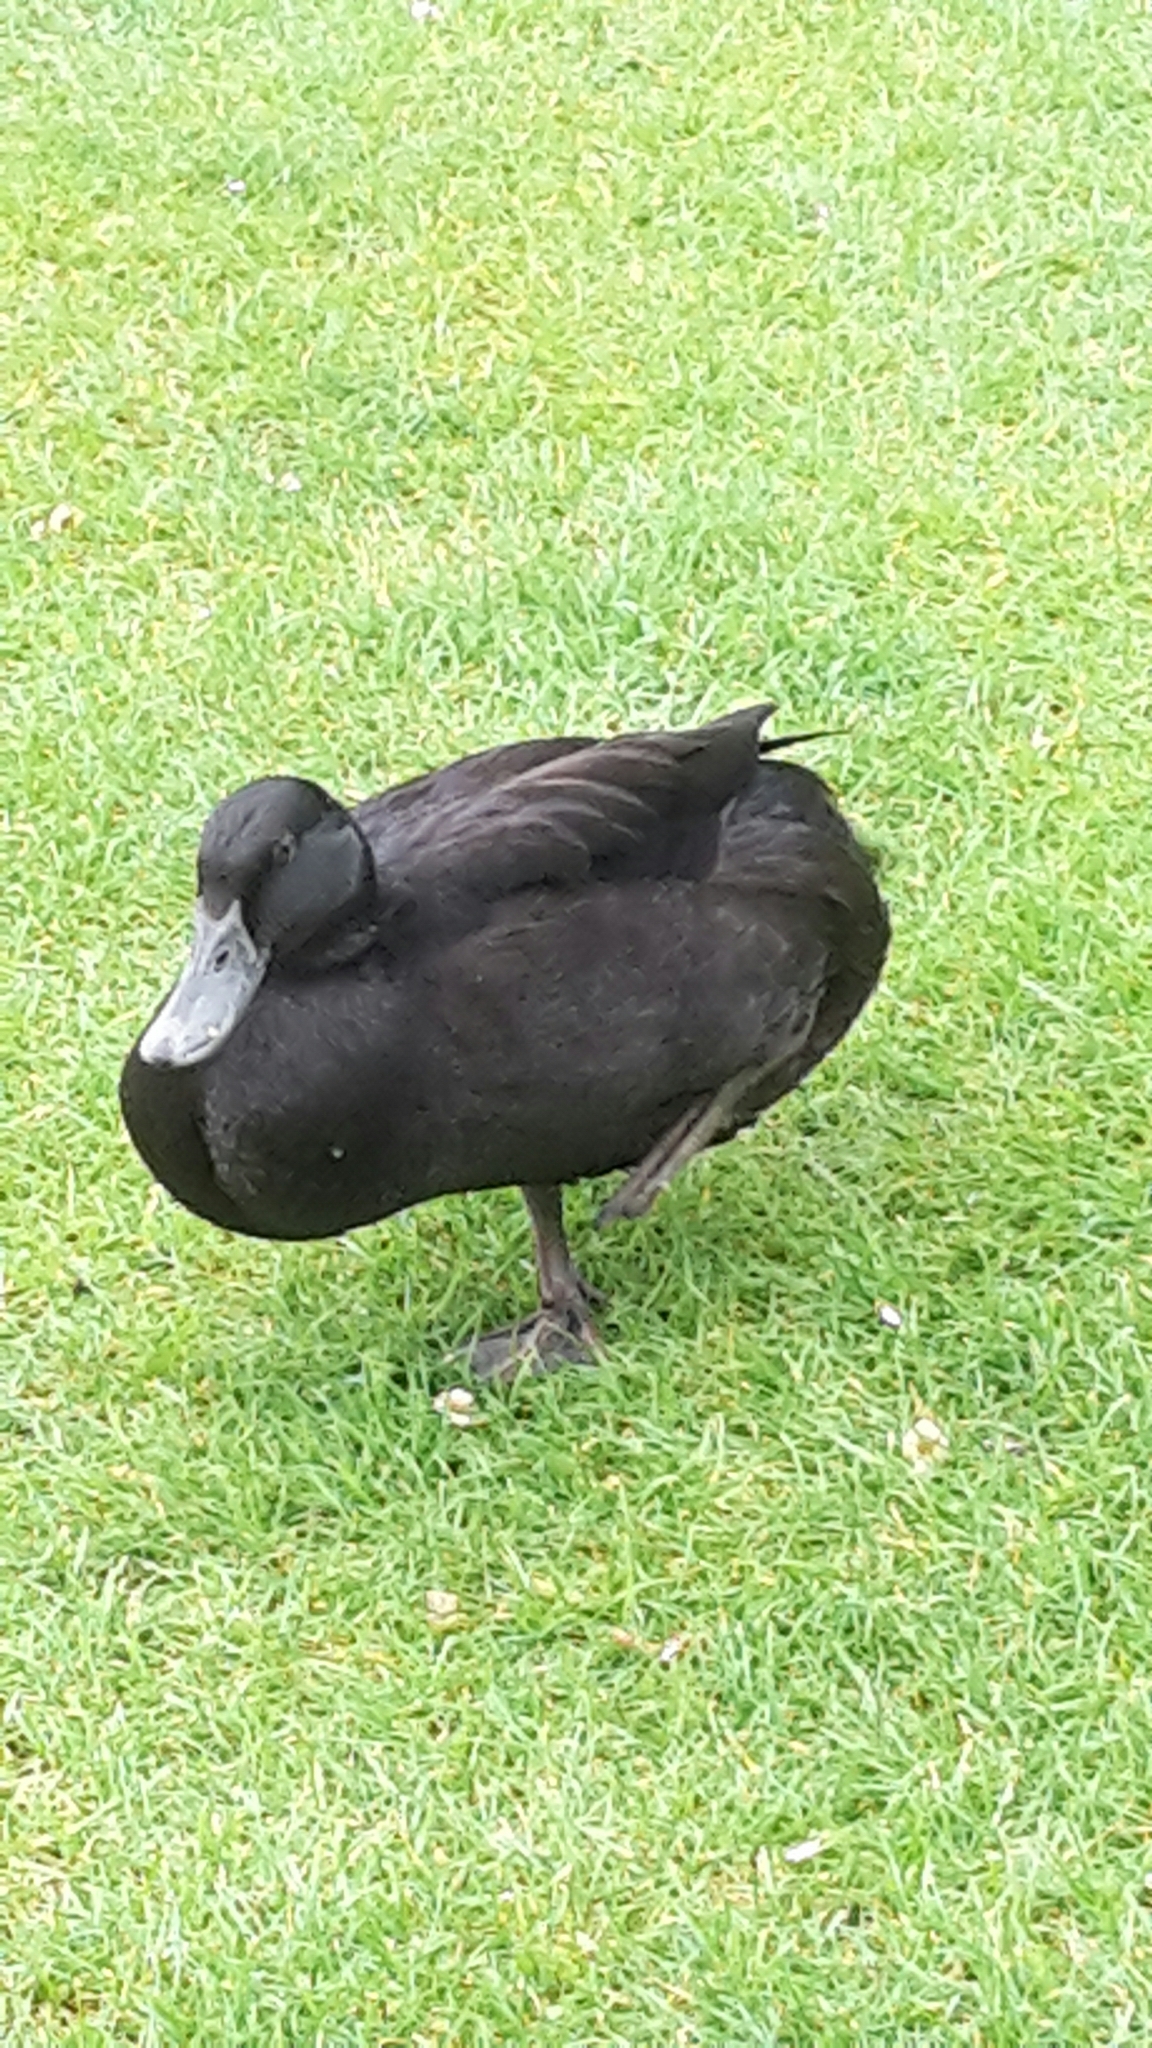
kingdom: Animalia
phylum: Chordata
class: Aves
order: Anseriformes
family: Anatidae
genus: Anas
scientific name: Anas platyrhynchos
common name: Mallard
